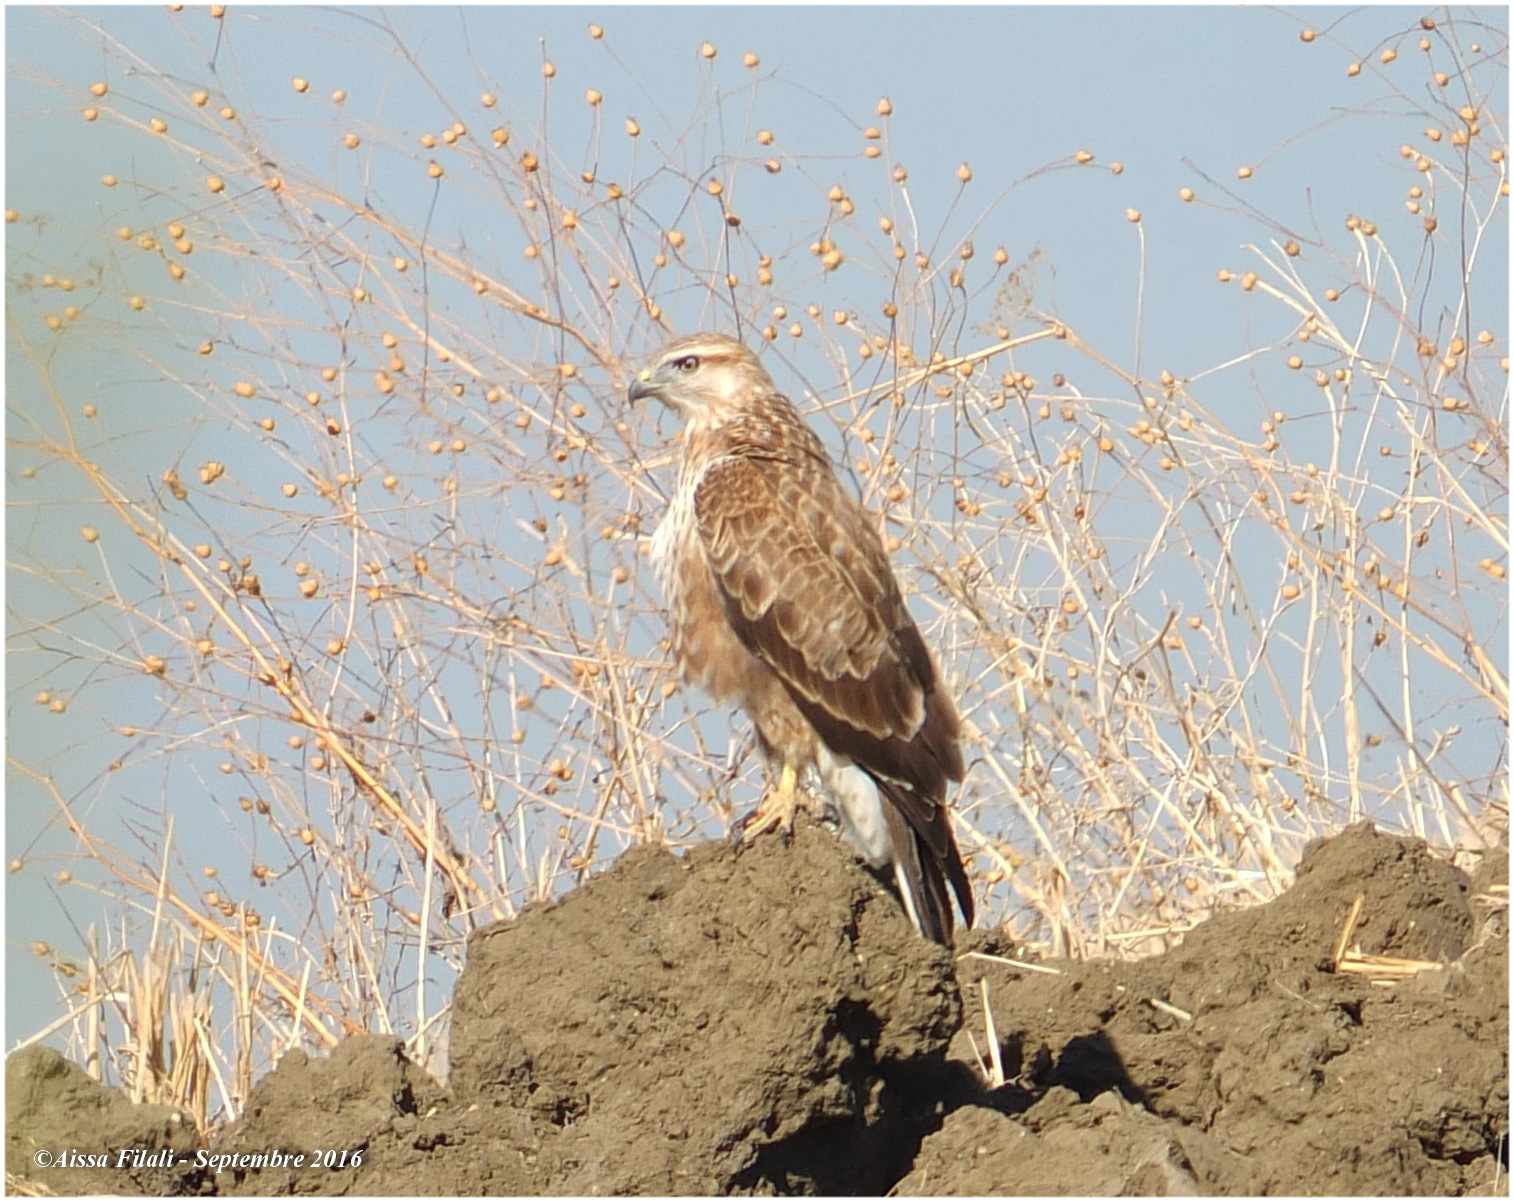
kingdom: Animalia
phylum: Chordata
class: Aves
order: Accipitriformes
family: Accipitridae
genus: Buteo
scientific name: Buteo rufinus
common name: Long-legged buzzard
